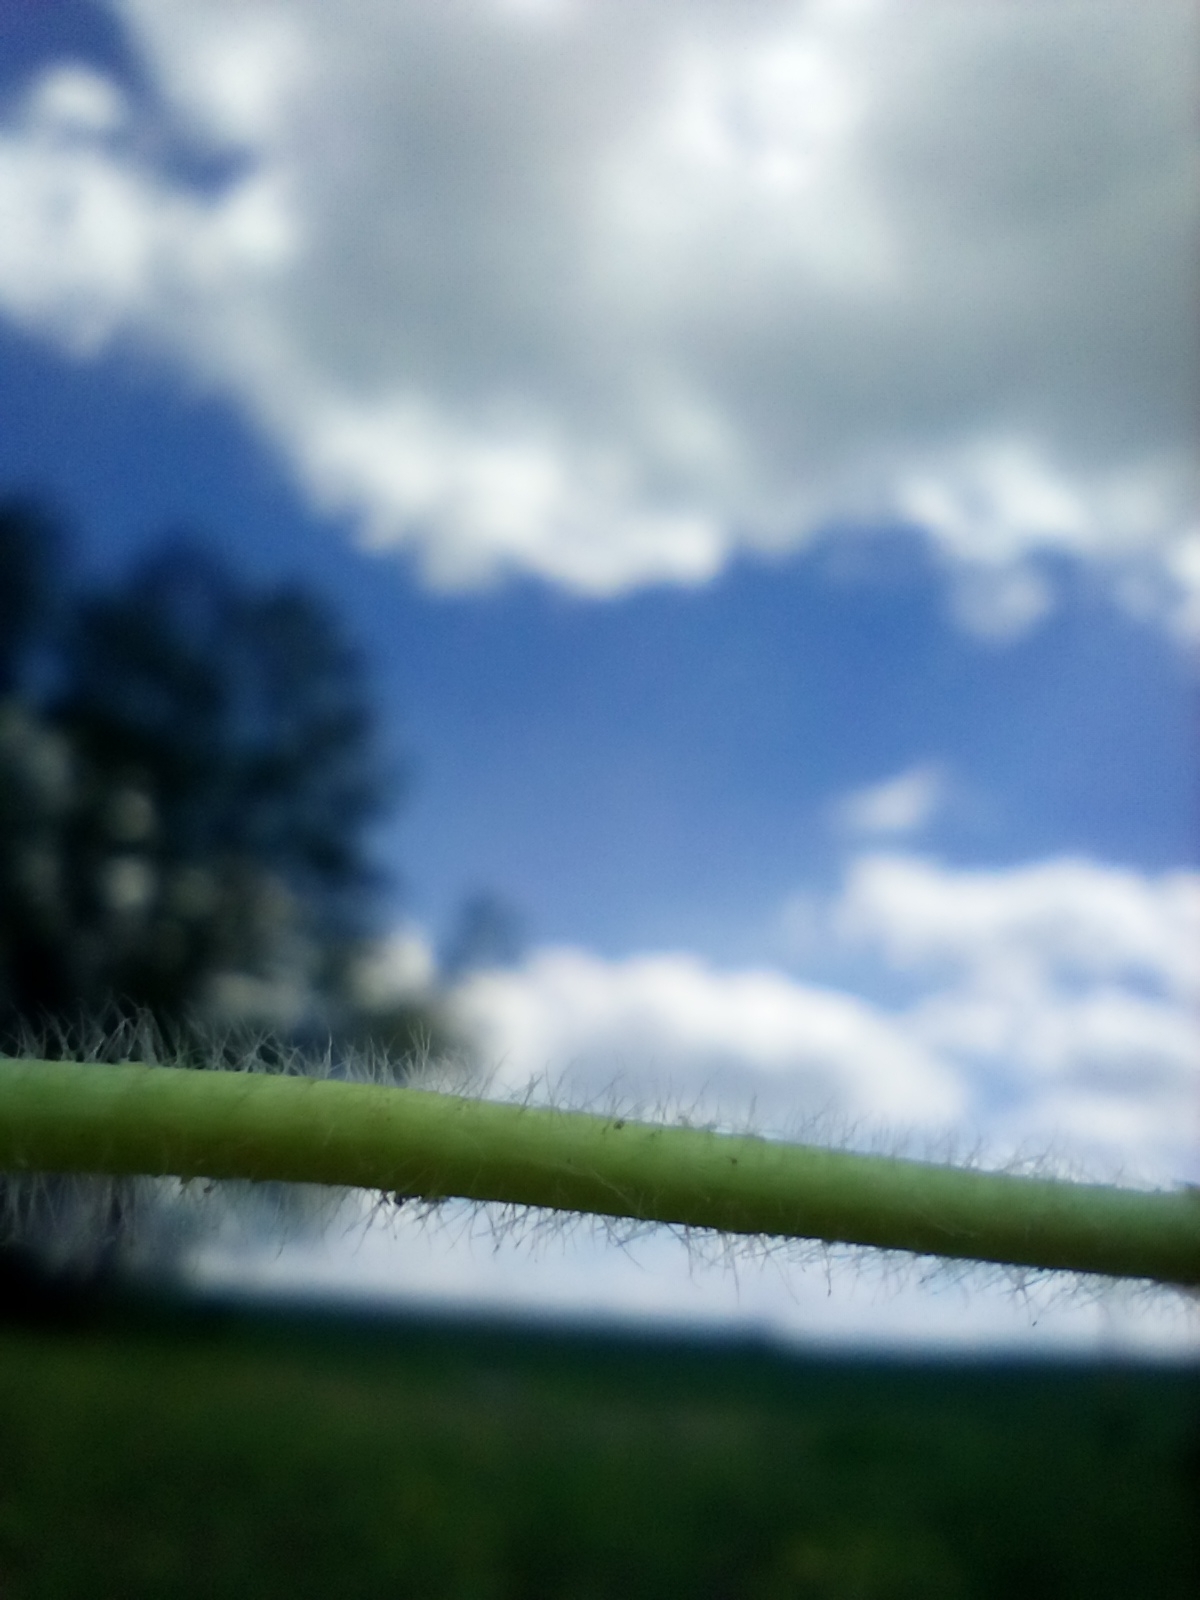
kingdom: Plantae
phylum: Tracheophyta
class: Magnoliopsida
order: Rosales
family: Rosaceae
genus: Alchemilla
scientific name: Alchemilla micans
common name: Gleaming lady's mantle
